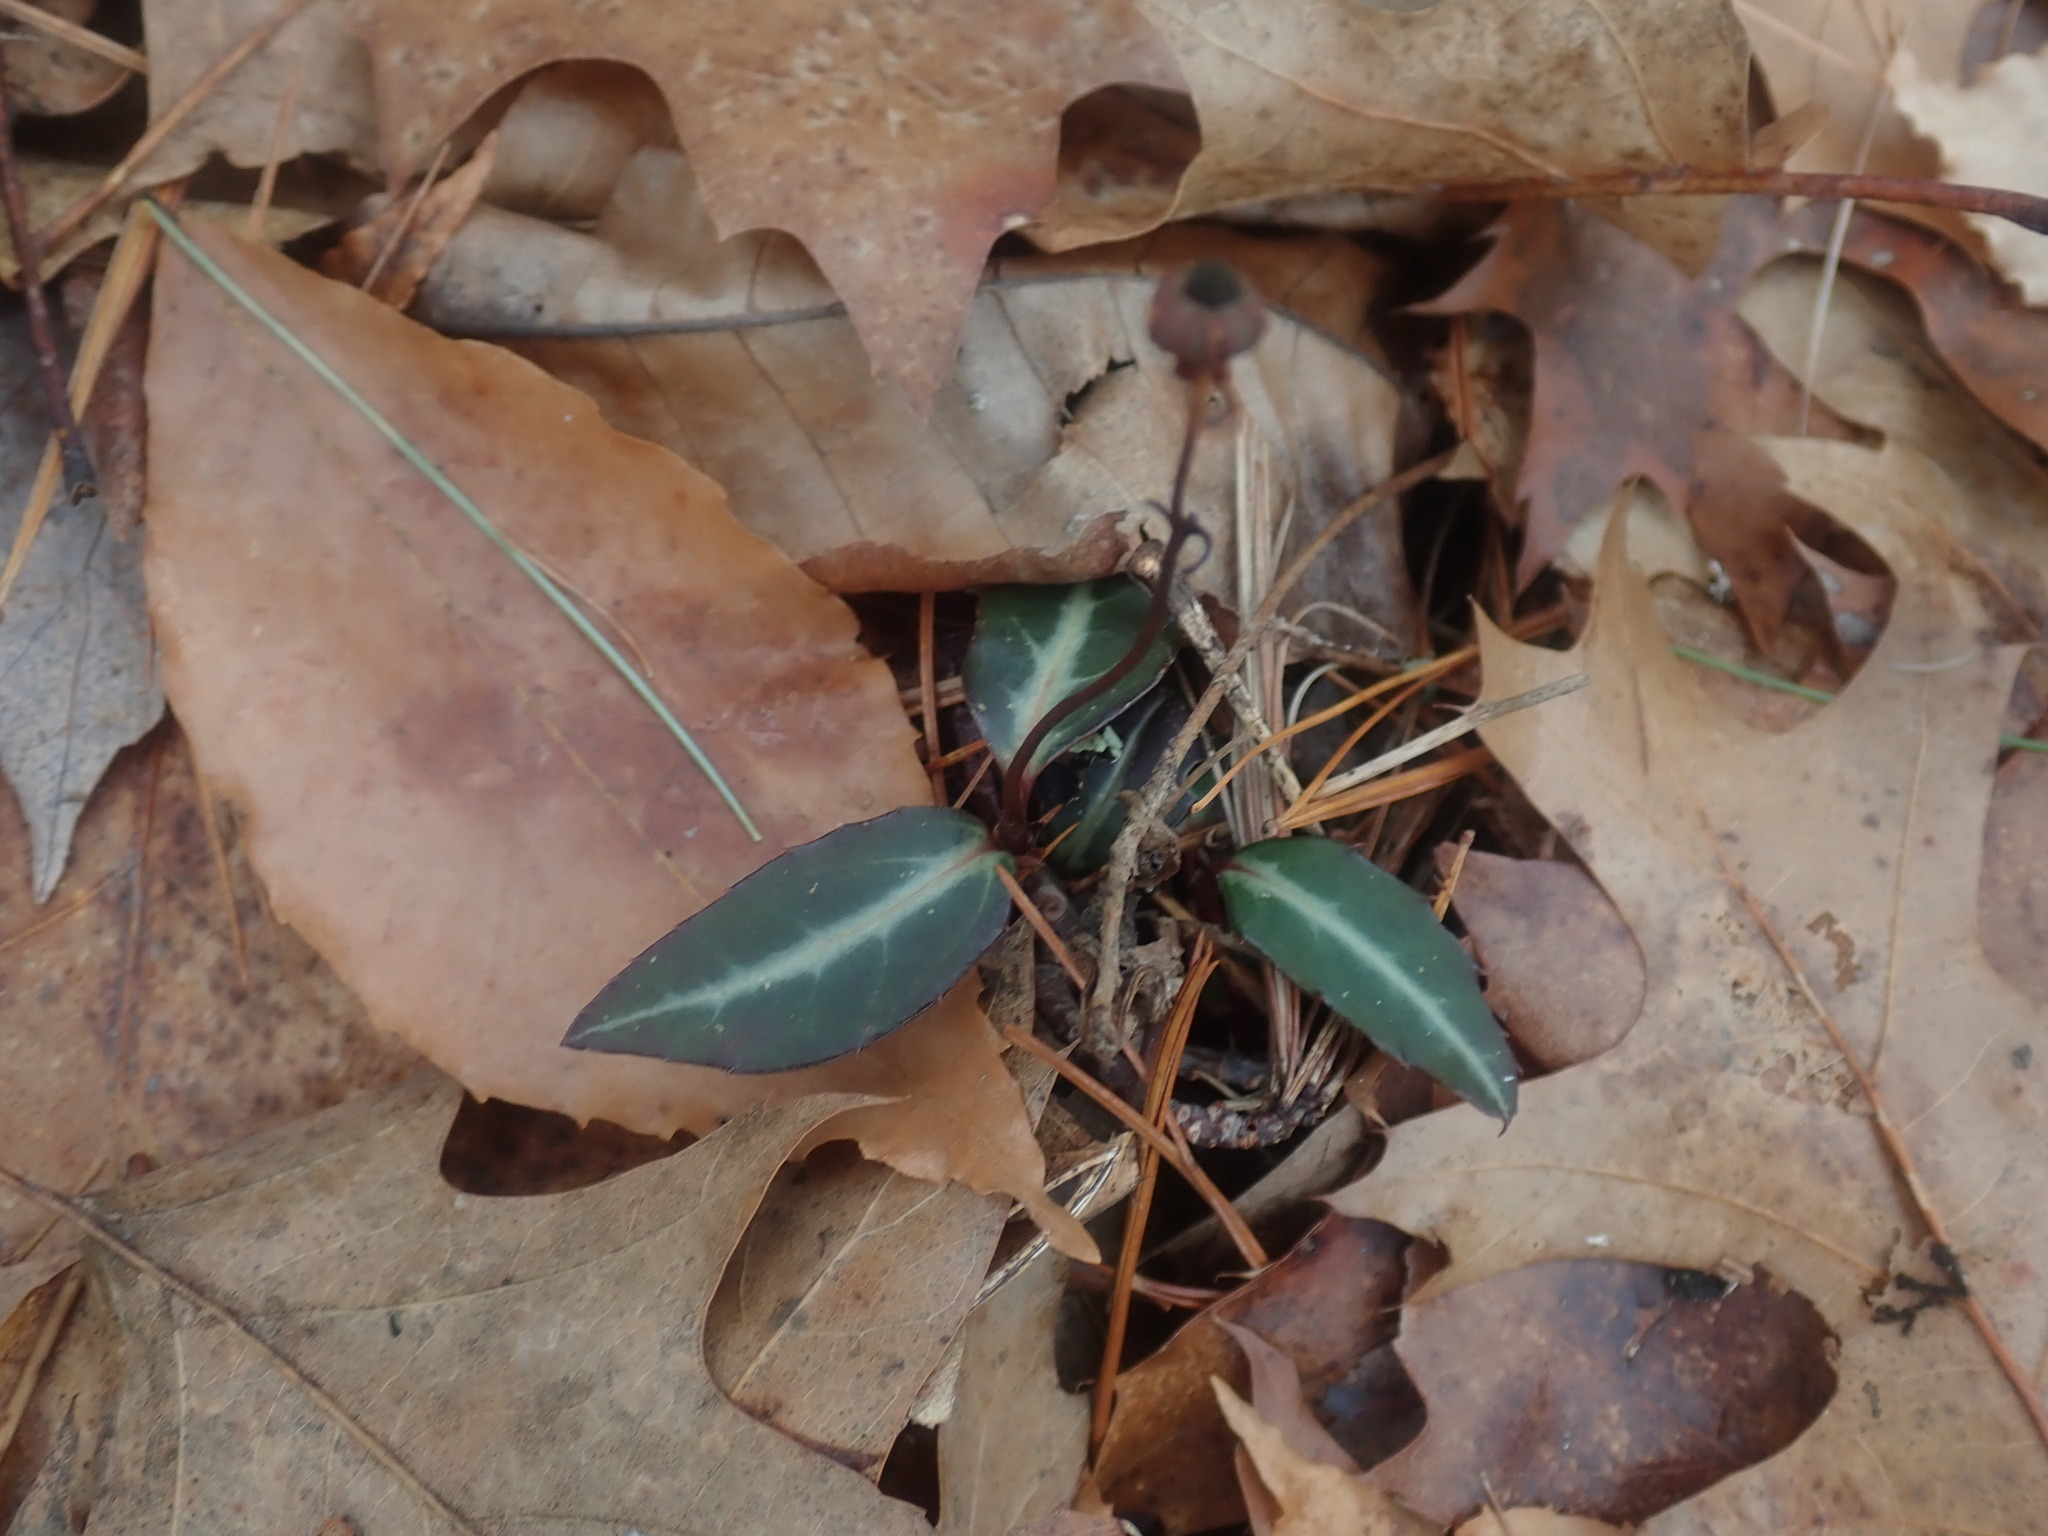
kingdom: Plantae
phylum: Tracheophyta
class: Magnoliopsida
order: Ericales
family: Ericaceae
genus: Chimaphila
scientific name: Chimaphila maculata
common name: Spotted pipsissewa
